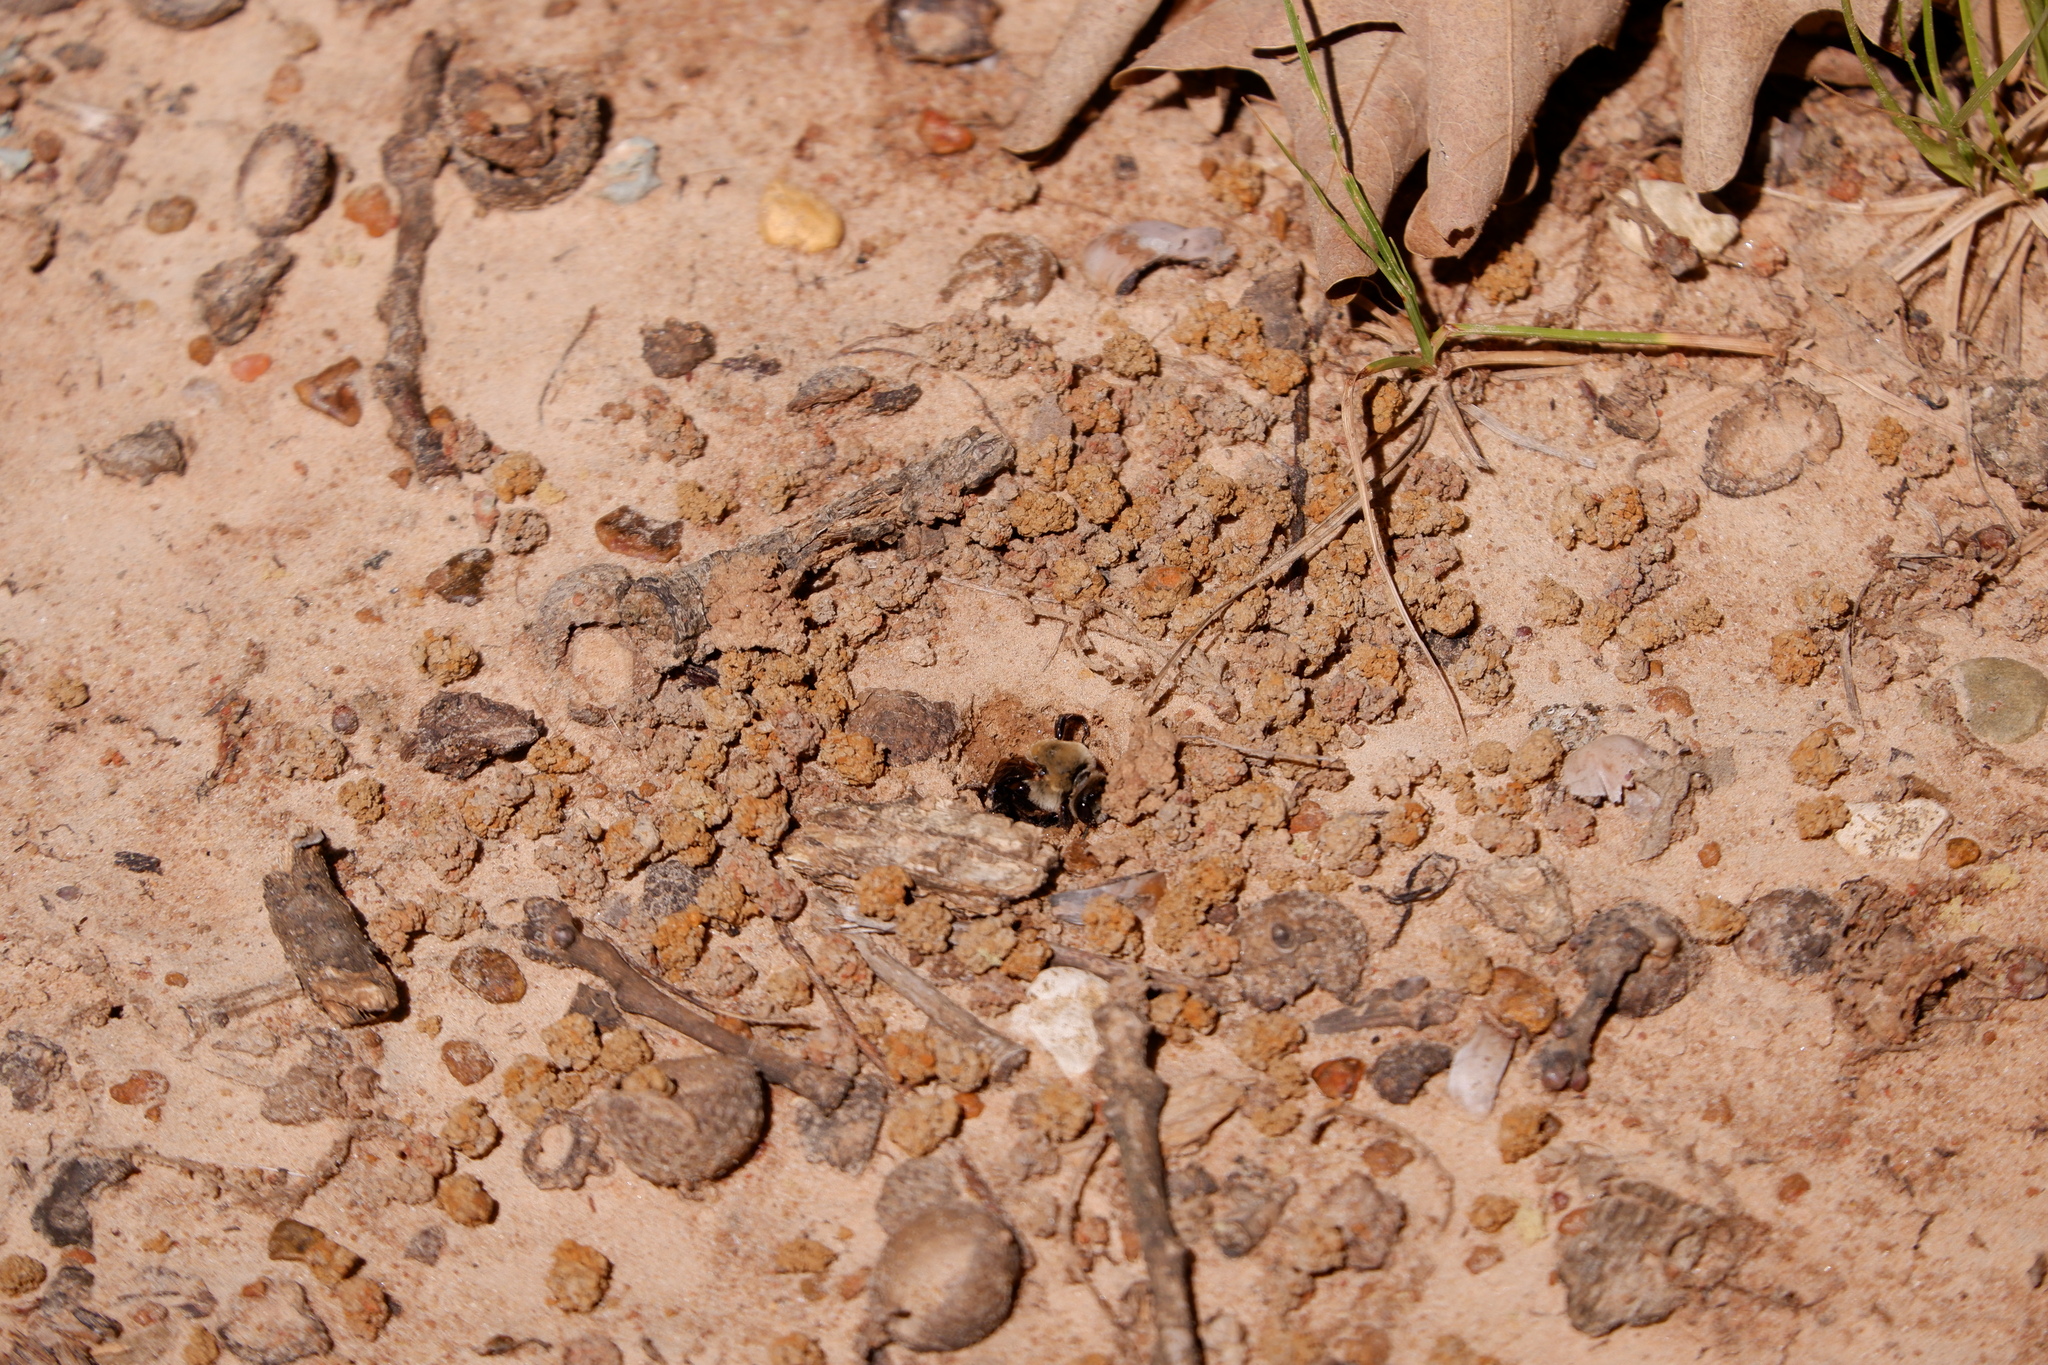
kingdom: Animalia
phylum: Arthropoda
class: Insecta
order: Hymenoptera
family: Apidae
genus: Ptilothrix
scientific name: Ptilothrix bombiformis
